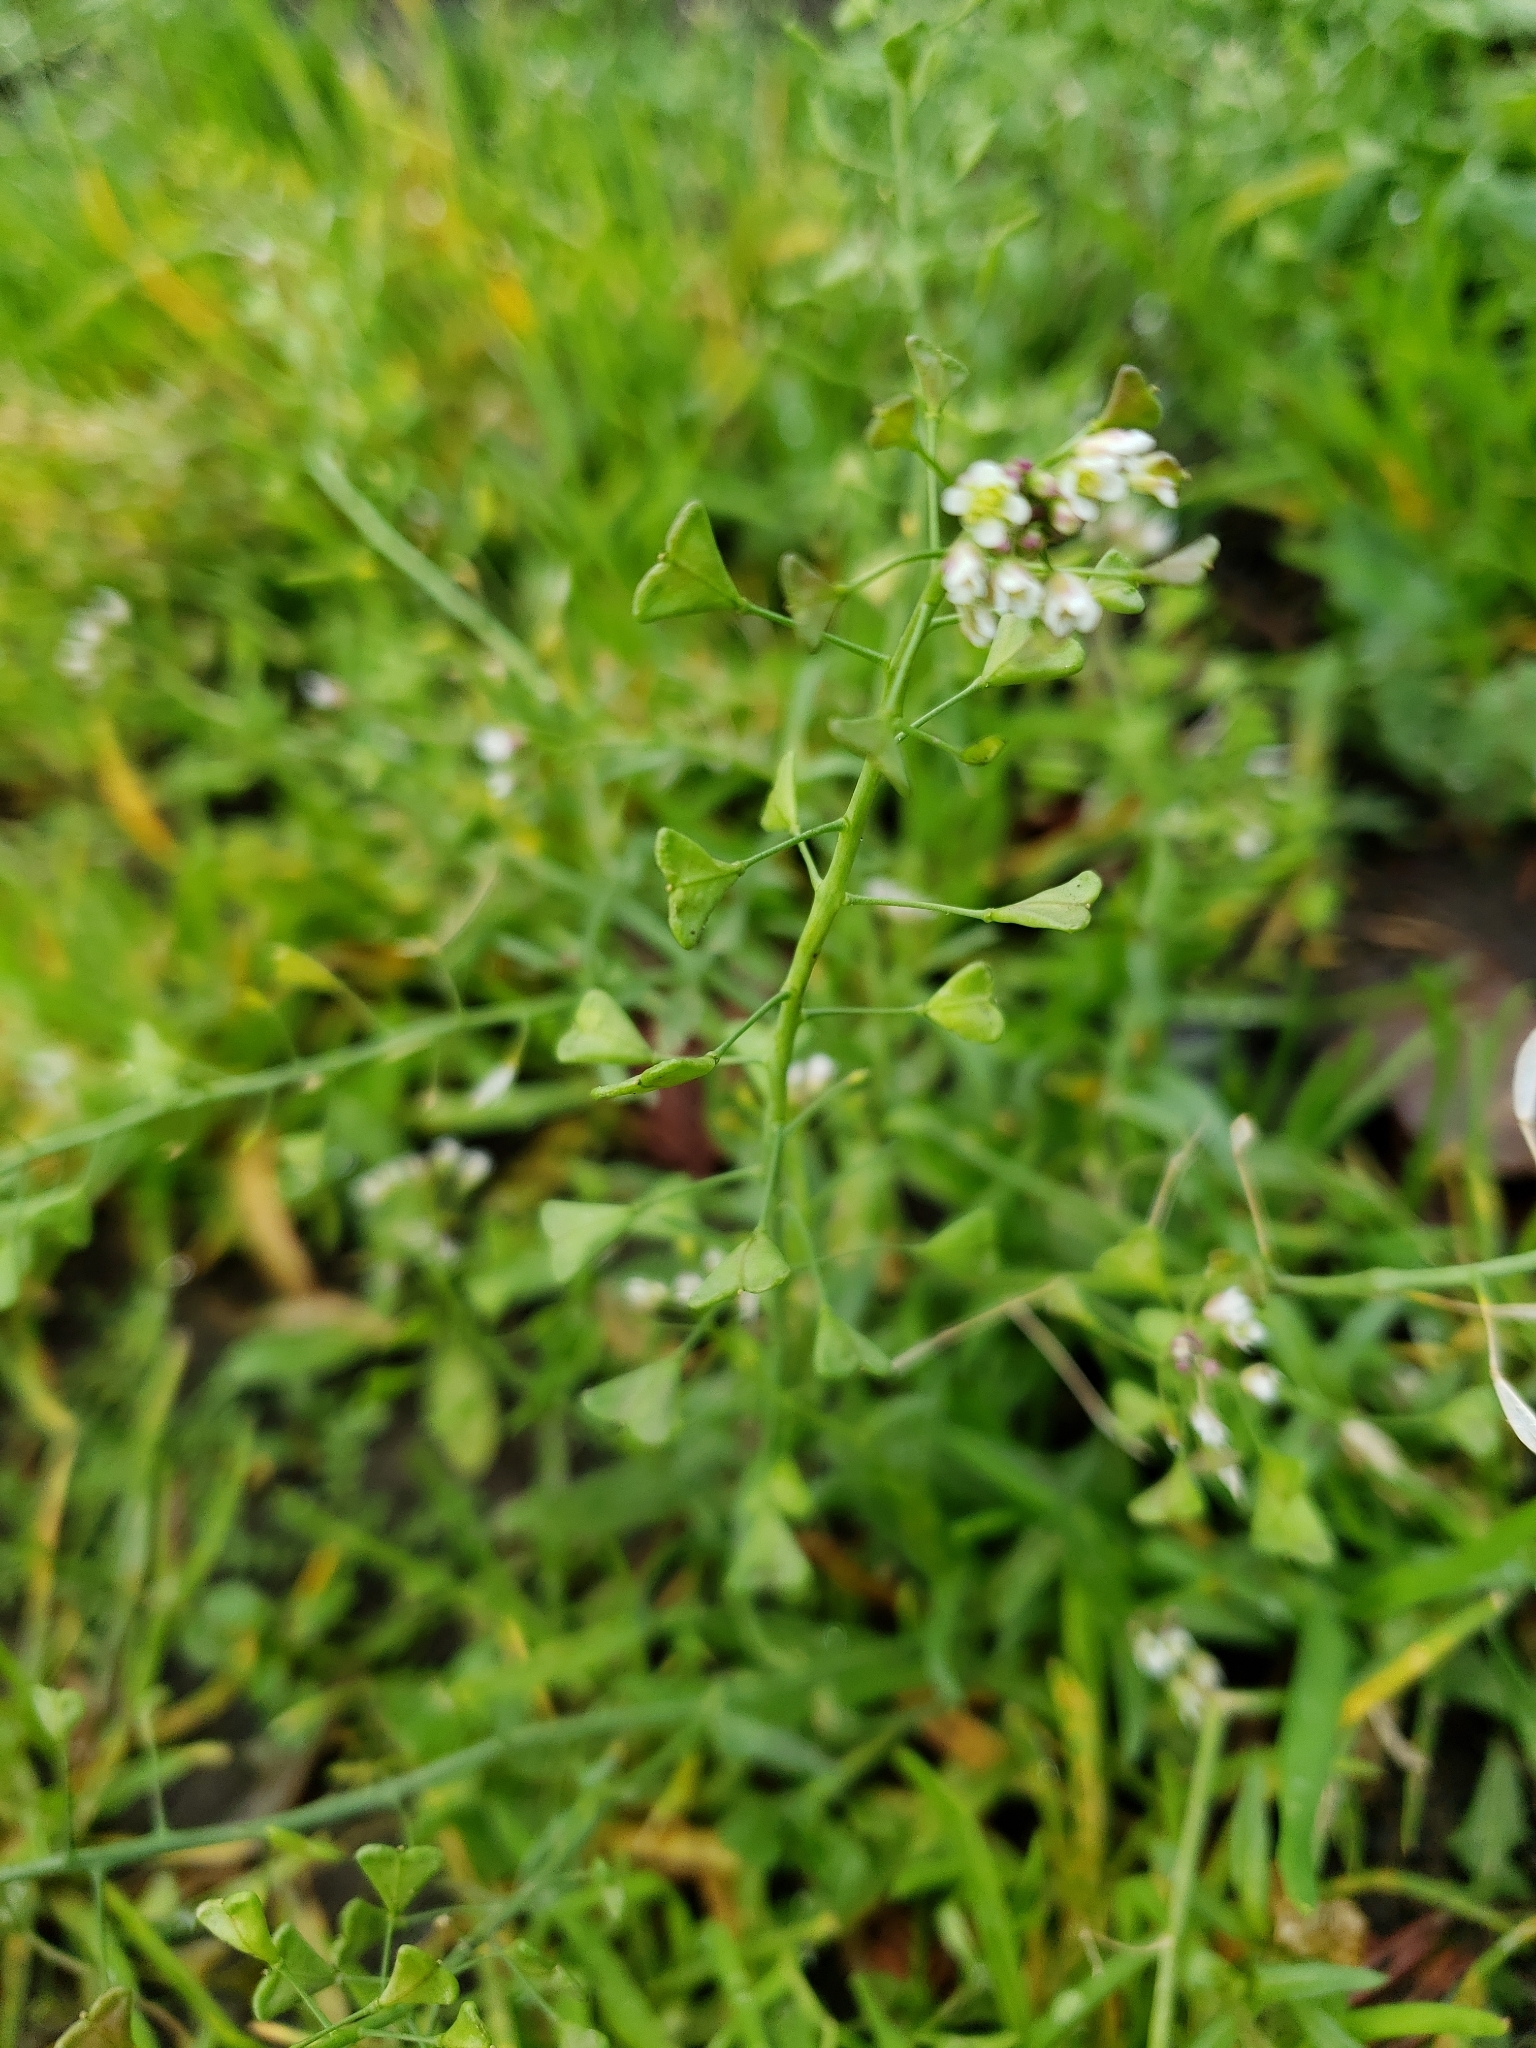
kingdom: Plantae
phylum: Tracheophyta
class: Magnoliopsida
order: Brassicales
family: Brassicaceae
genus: Capsella
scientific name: Capsella bursa-pastoris
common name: Shepherd's purse
